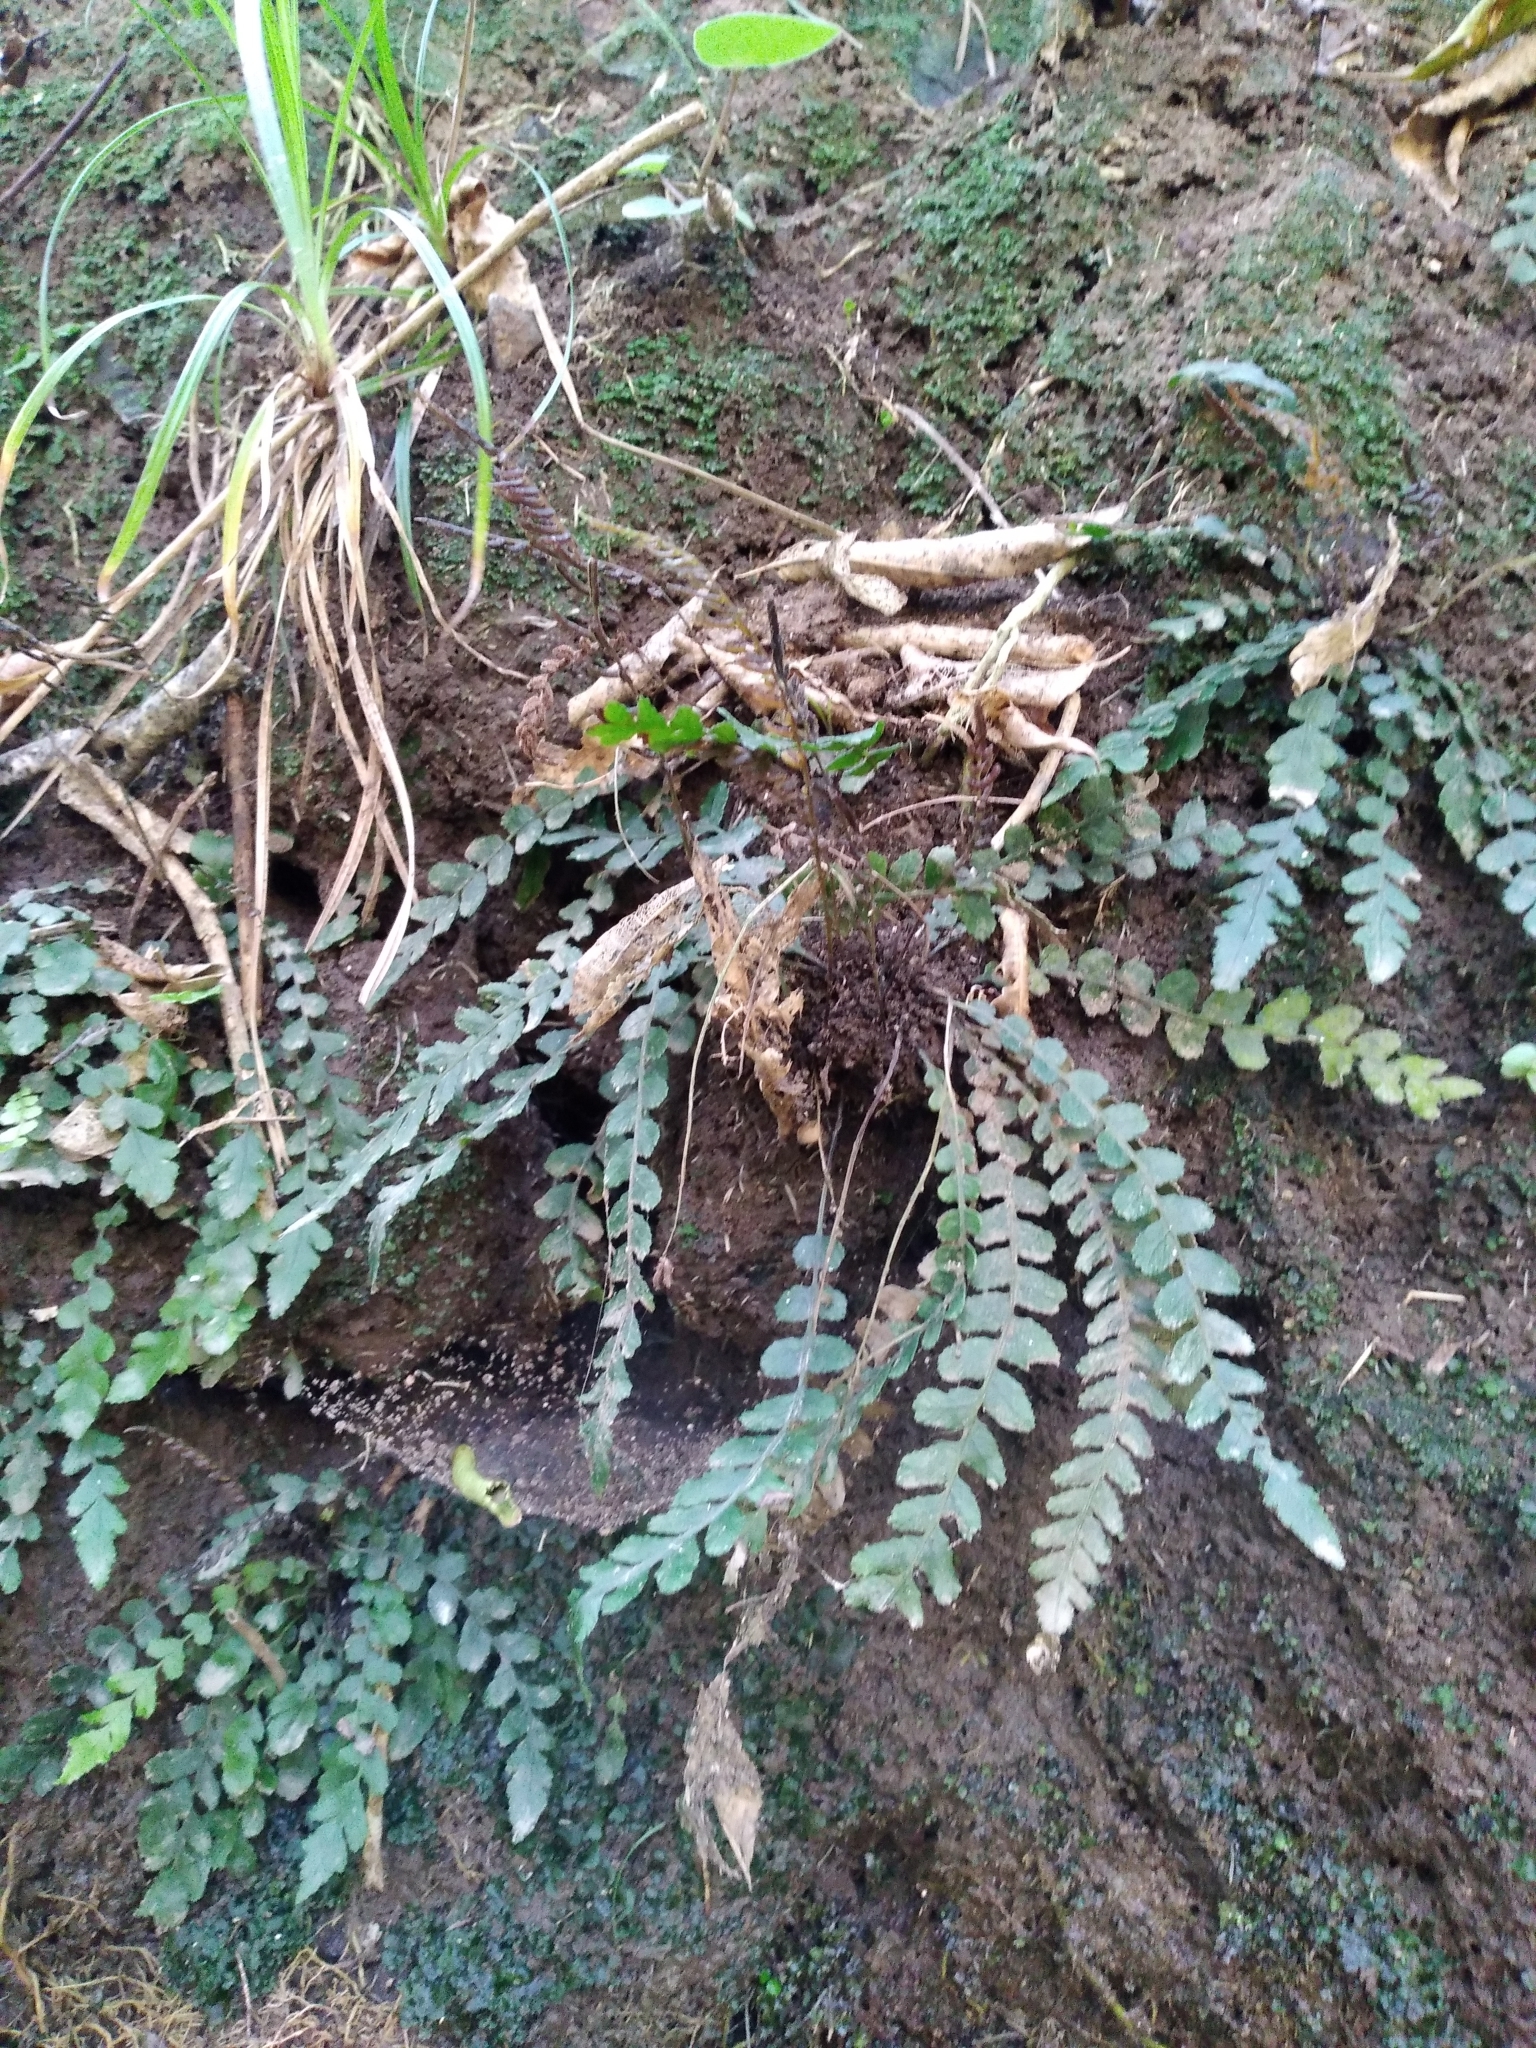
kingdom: Plantae
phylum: Tracheophyta
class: Polypodiopsida
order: Polypodiales
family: Blechnaceae
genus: Austroblechnum
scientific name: Austroblechnum membranaceum
